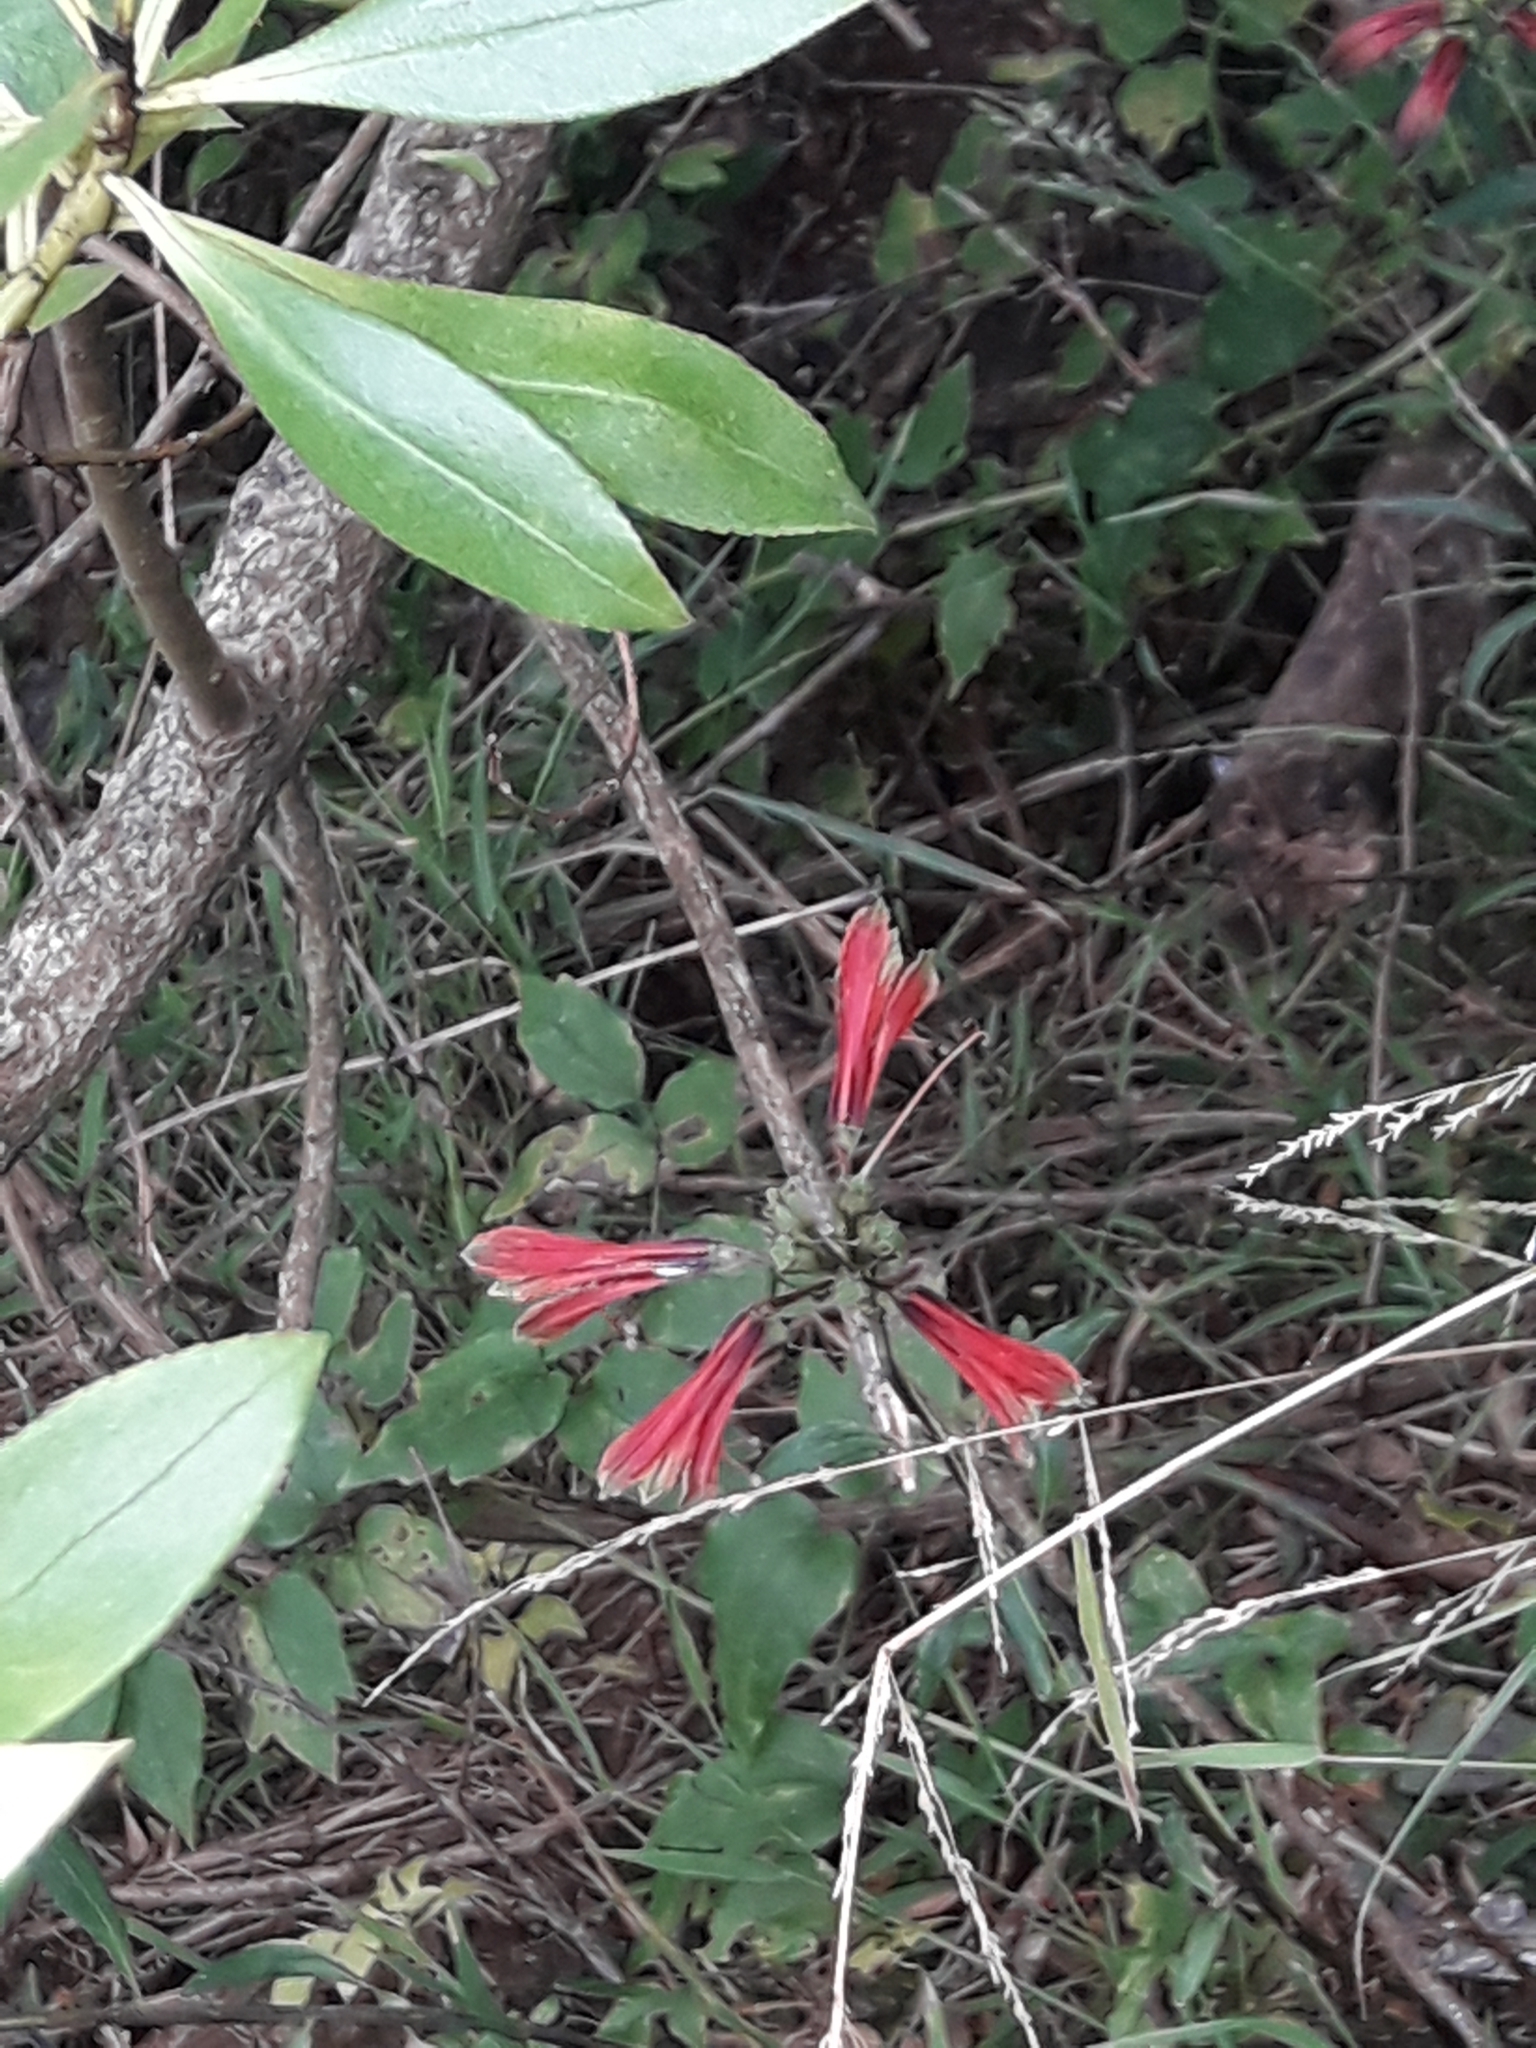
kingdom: Plantae
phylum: Tracheophyta
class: Liliopsida
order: Liliales
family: Alstroemeriaceae
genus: Alstroemeria
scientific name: Alstroemeria psittacina
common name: Peruvian-lily
